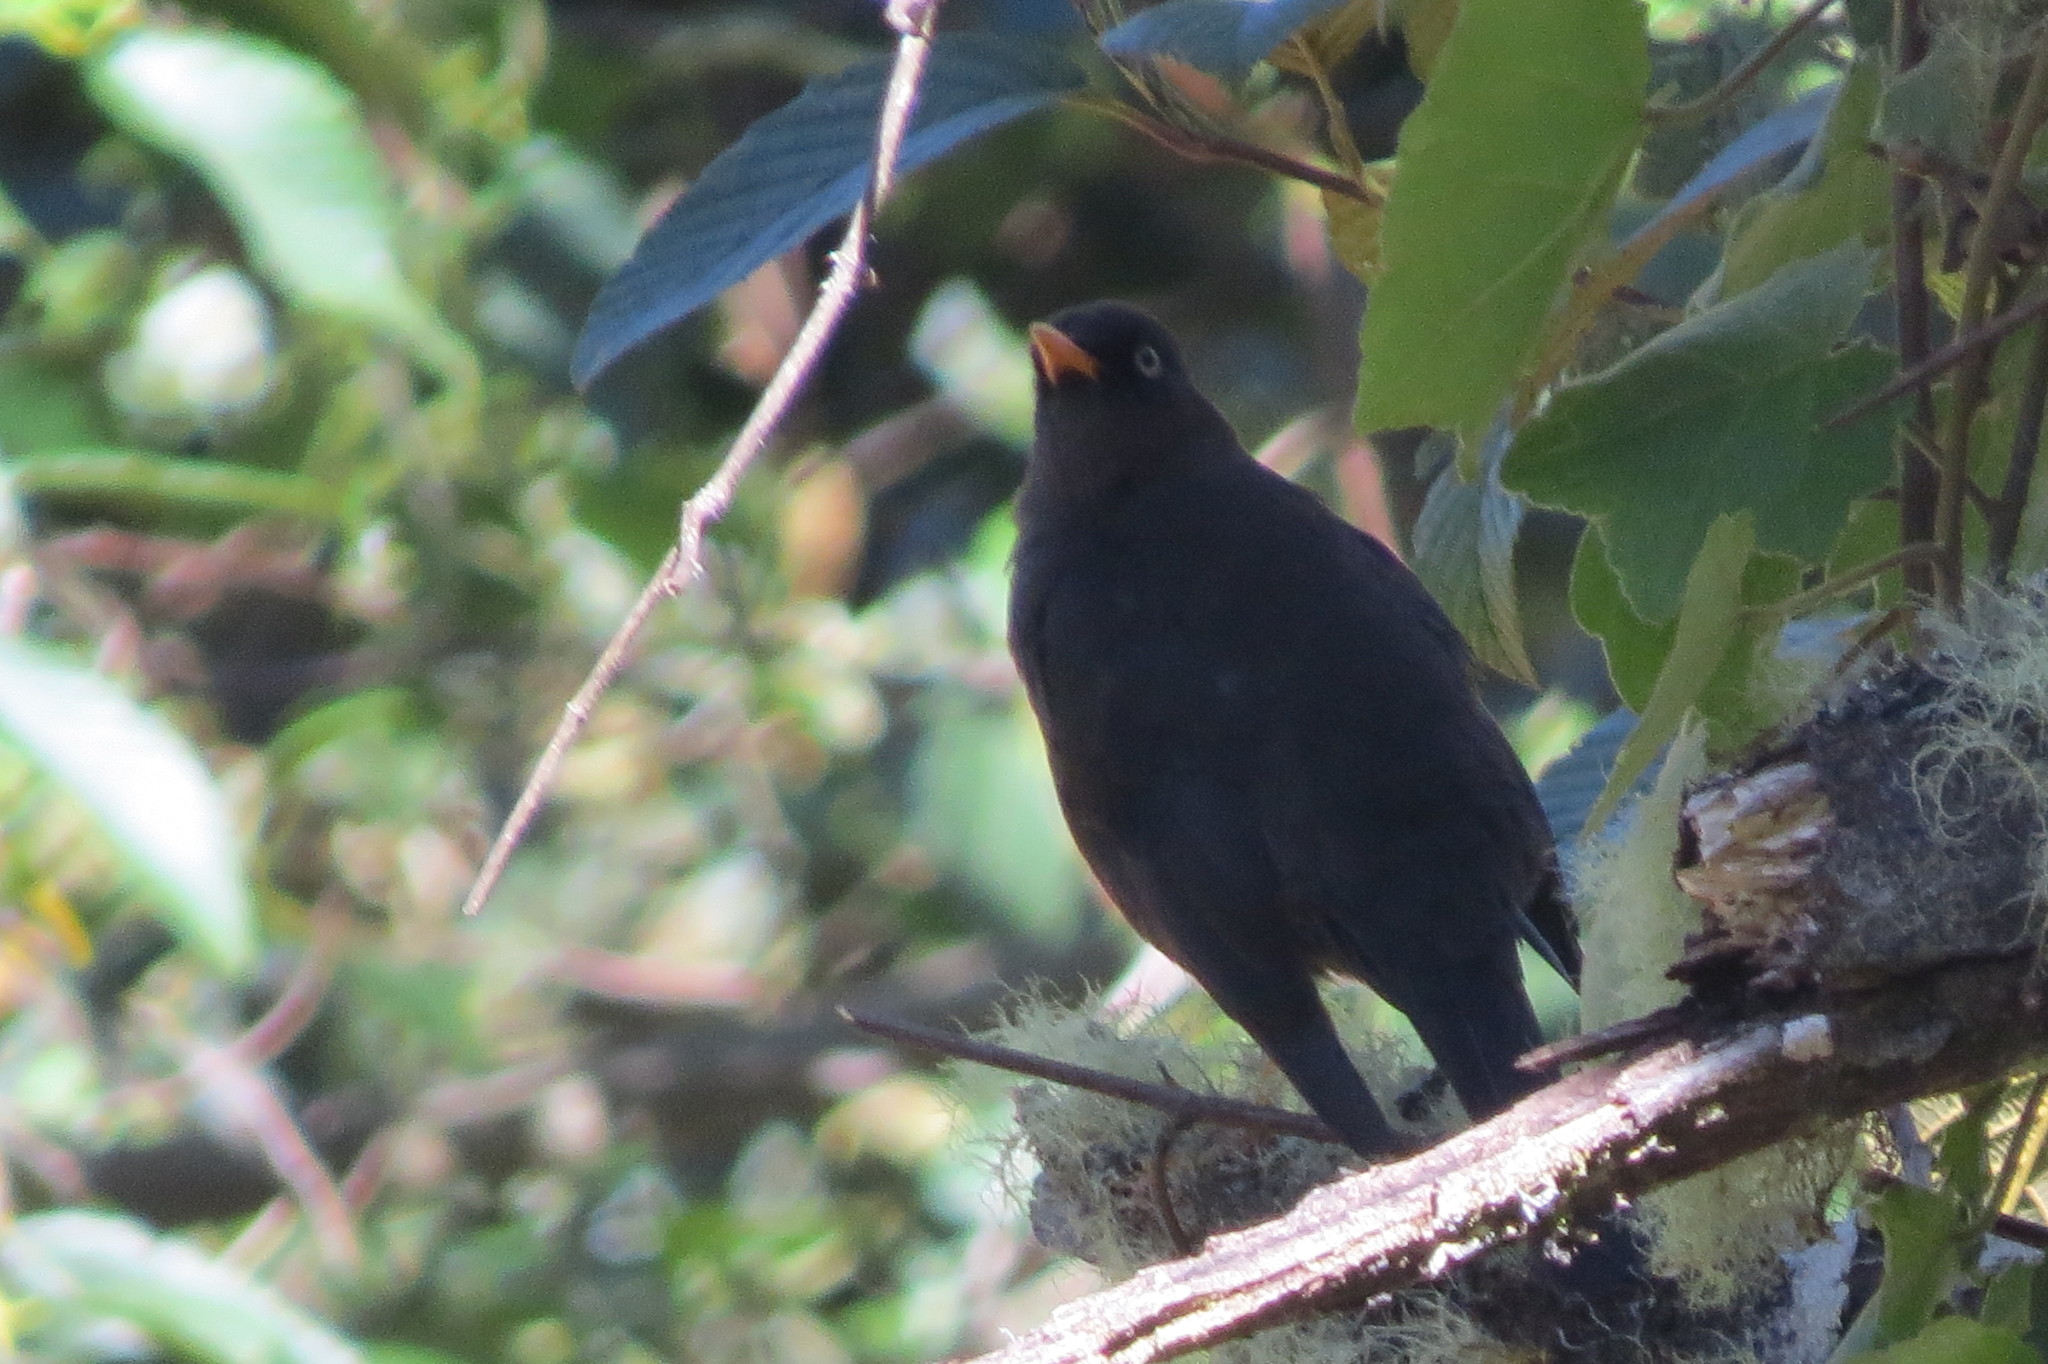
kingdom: Animalia
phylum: Chordata
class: Aves
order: Passeriformes
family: Turdidae
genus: Turdus
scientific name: Turdus nigrescens
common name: Sooty thrush
